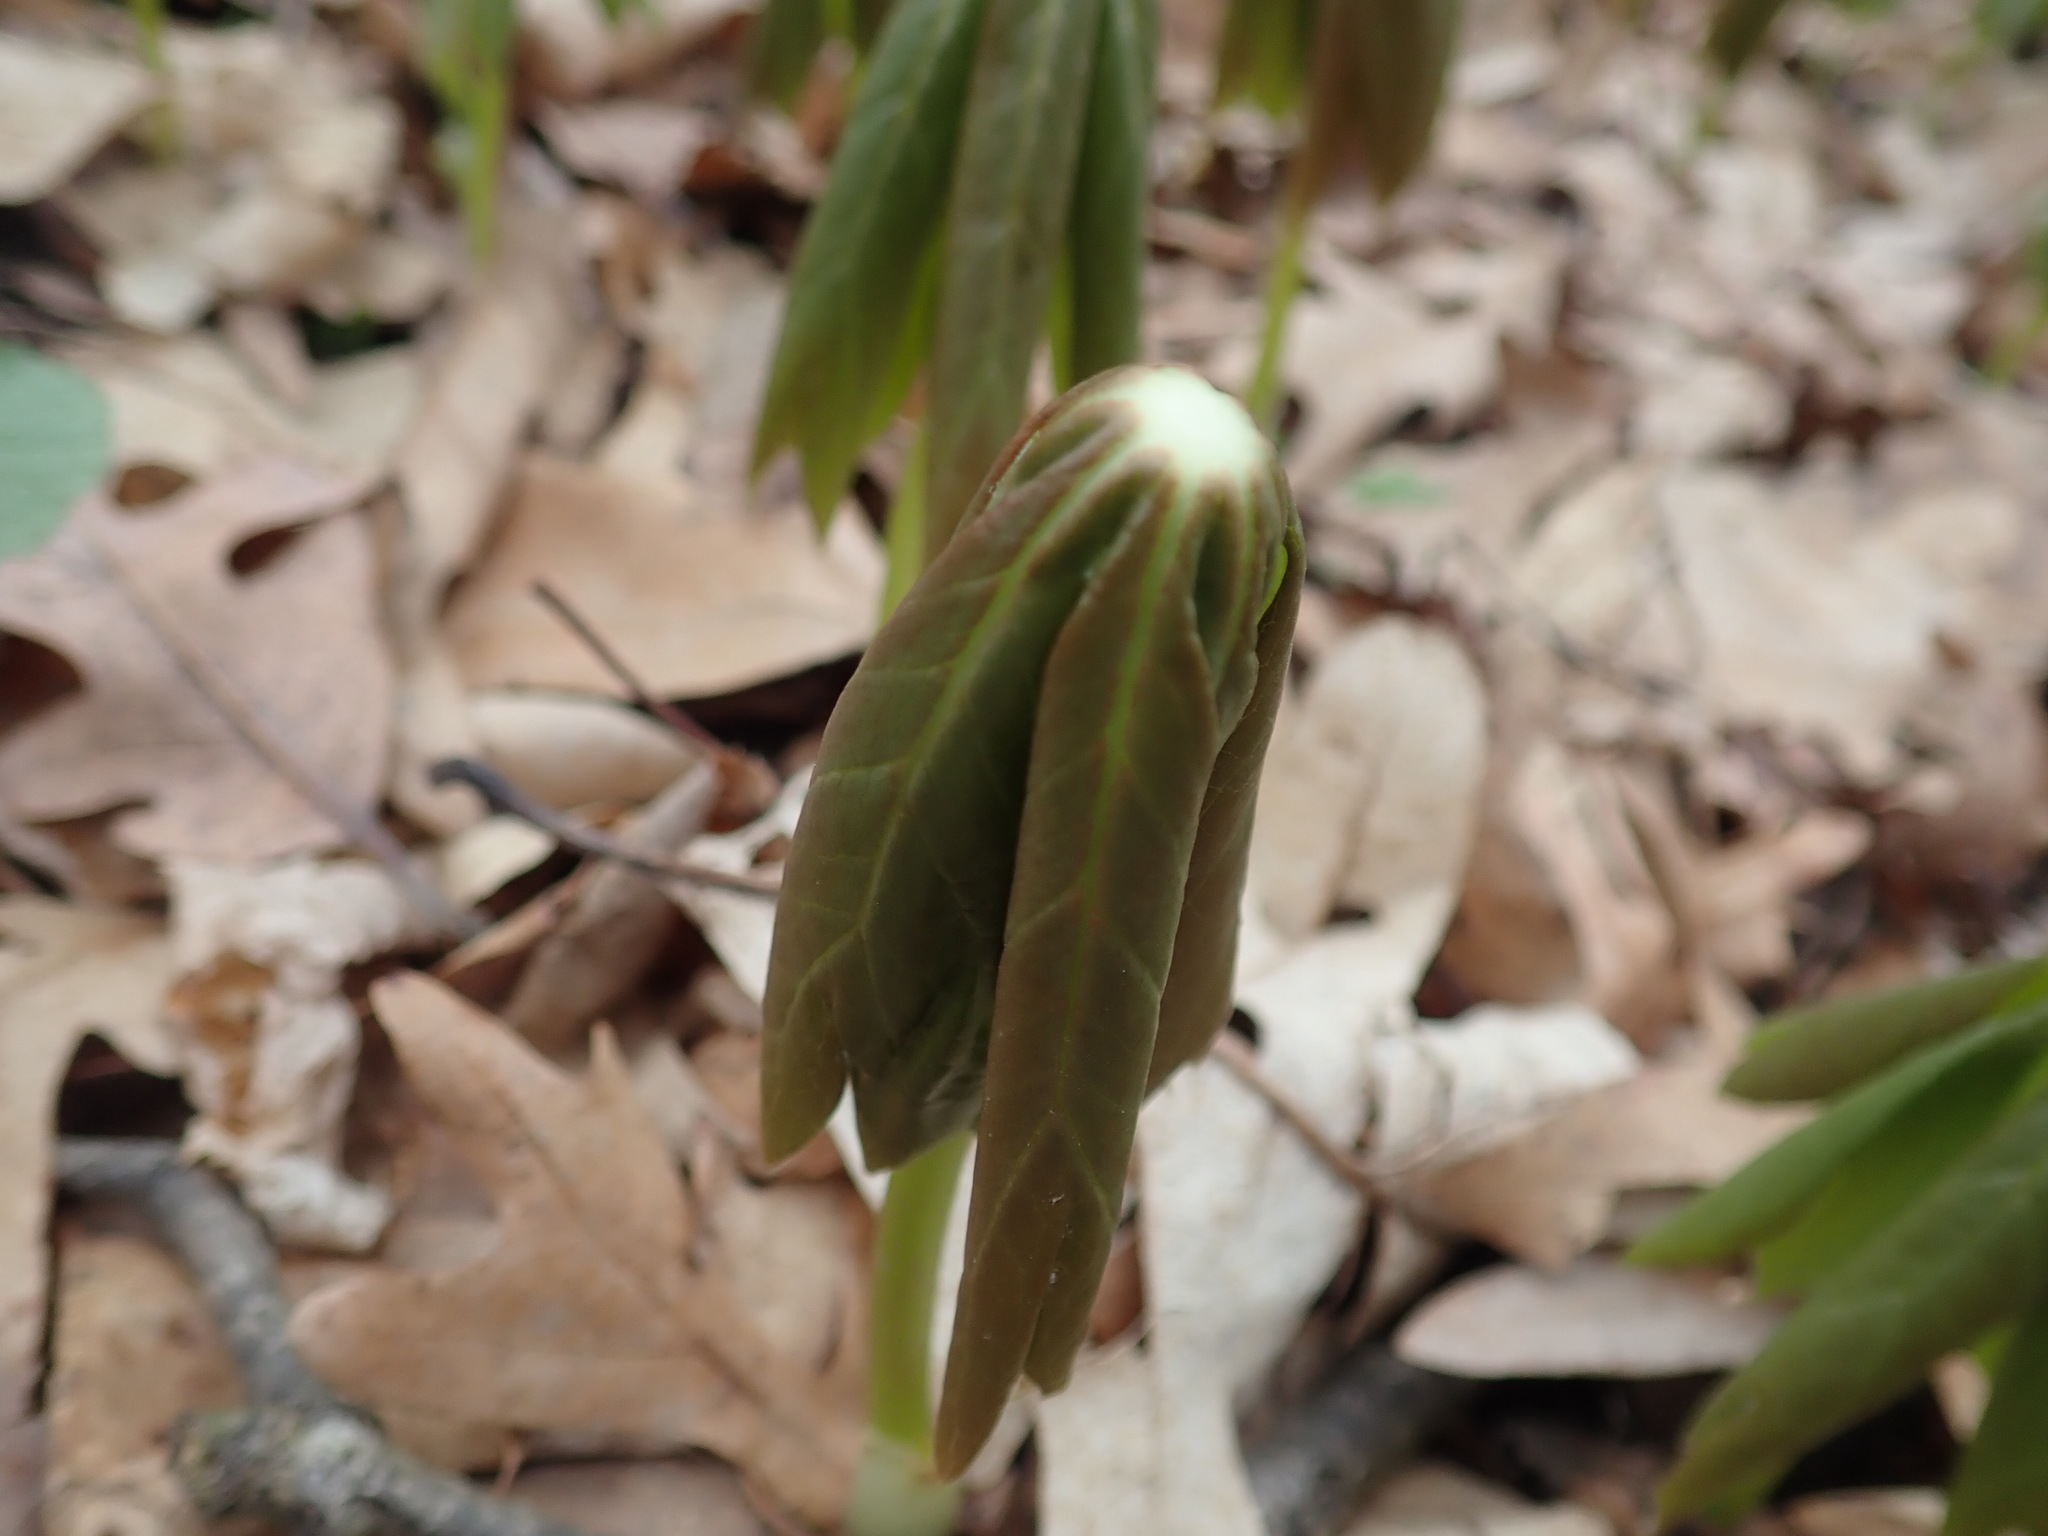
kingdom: Plantae
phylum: Tracheophyta
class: Magnoliopsida
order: Ranunculales
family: Berberidaceae
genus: Podophyllum
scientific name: Podophyllum peltatum
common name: Wild mandrake
